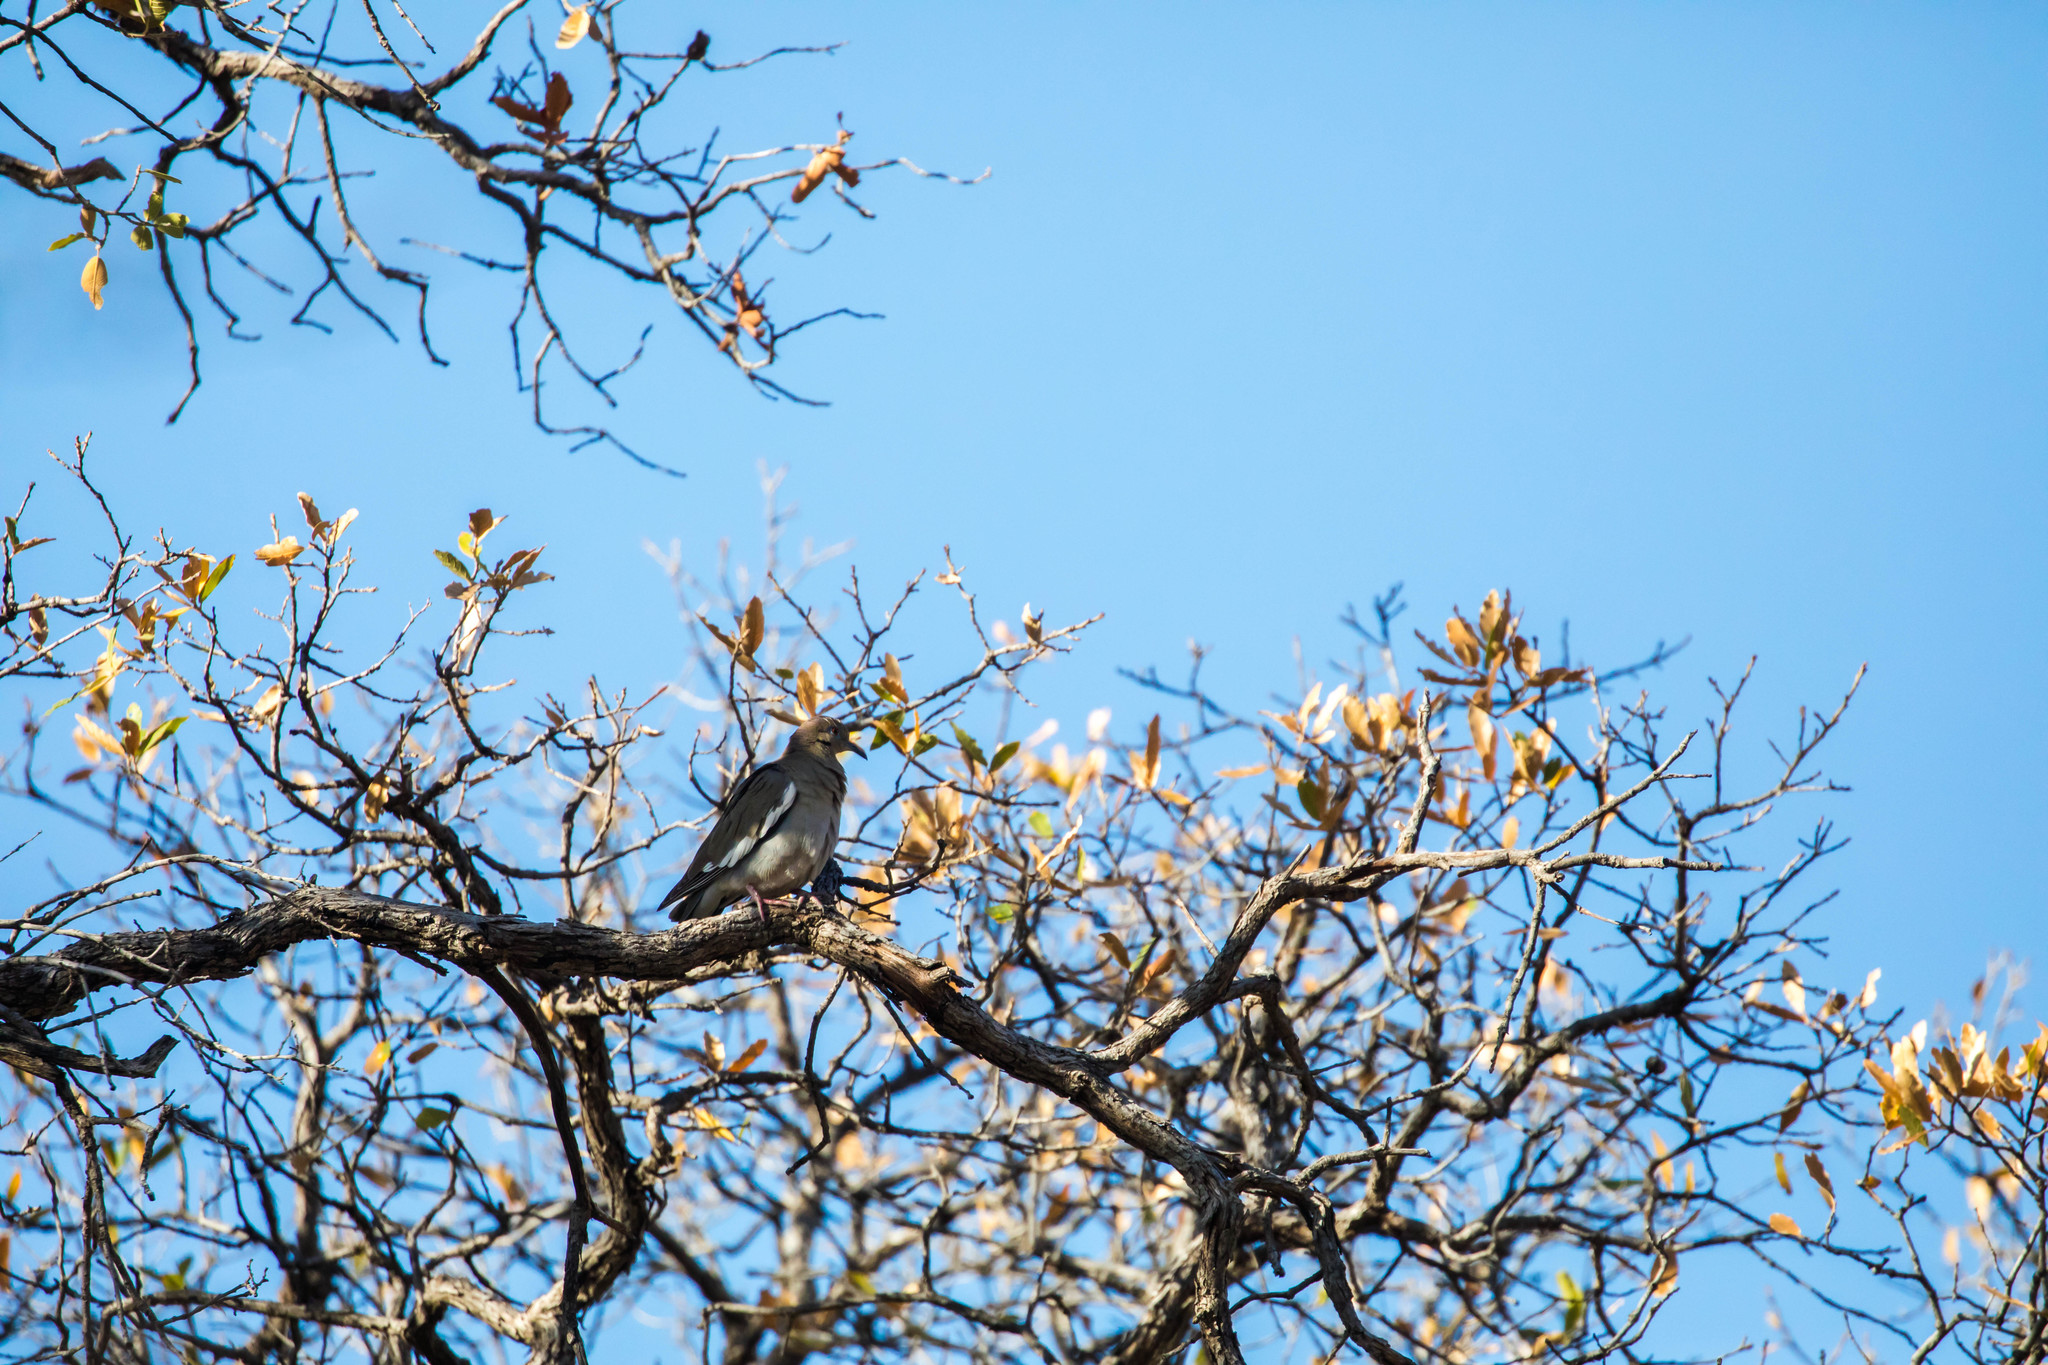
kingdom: Animalia
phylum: Chordata
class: Aves
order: Columbiformes
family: Columbidae
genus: Zenaida
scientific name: Zenaida asiatica
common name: White-winged dove
